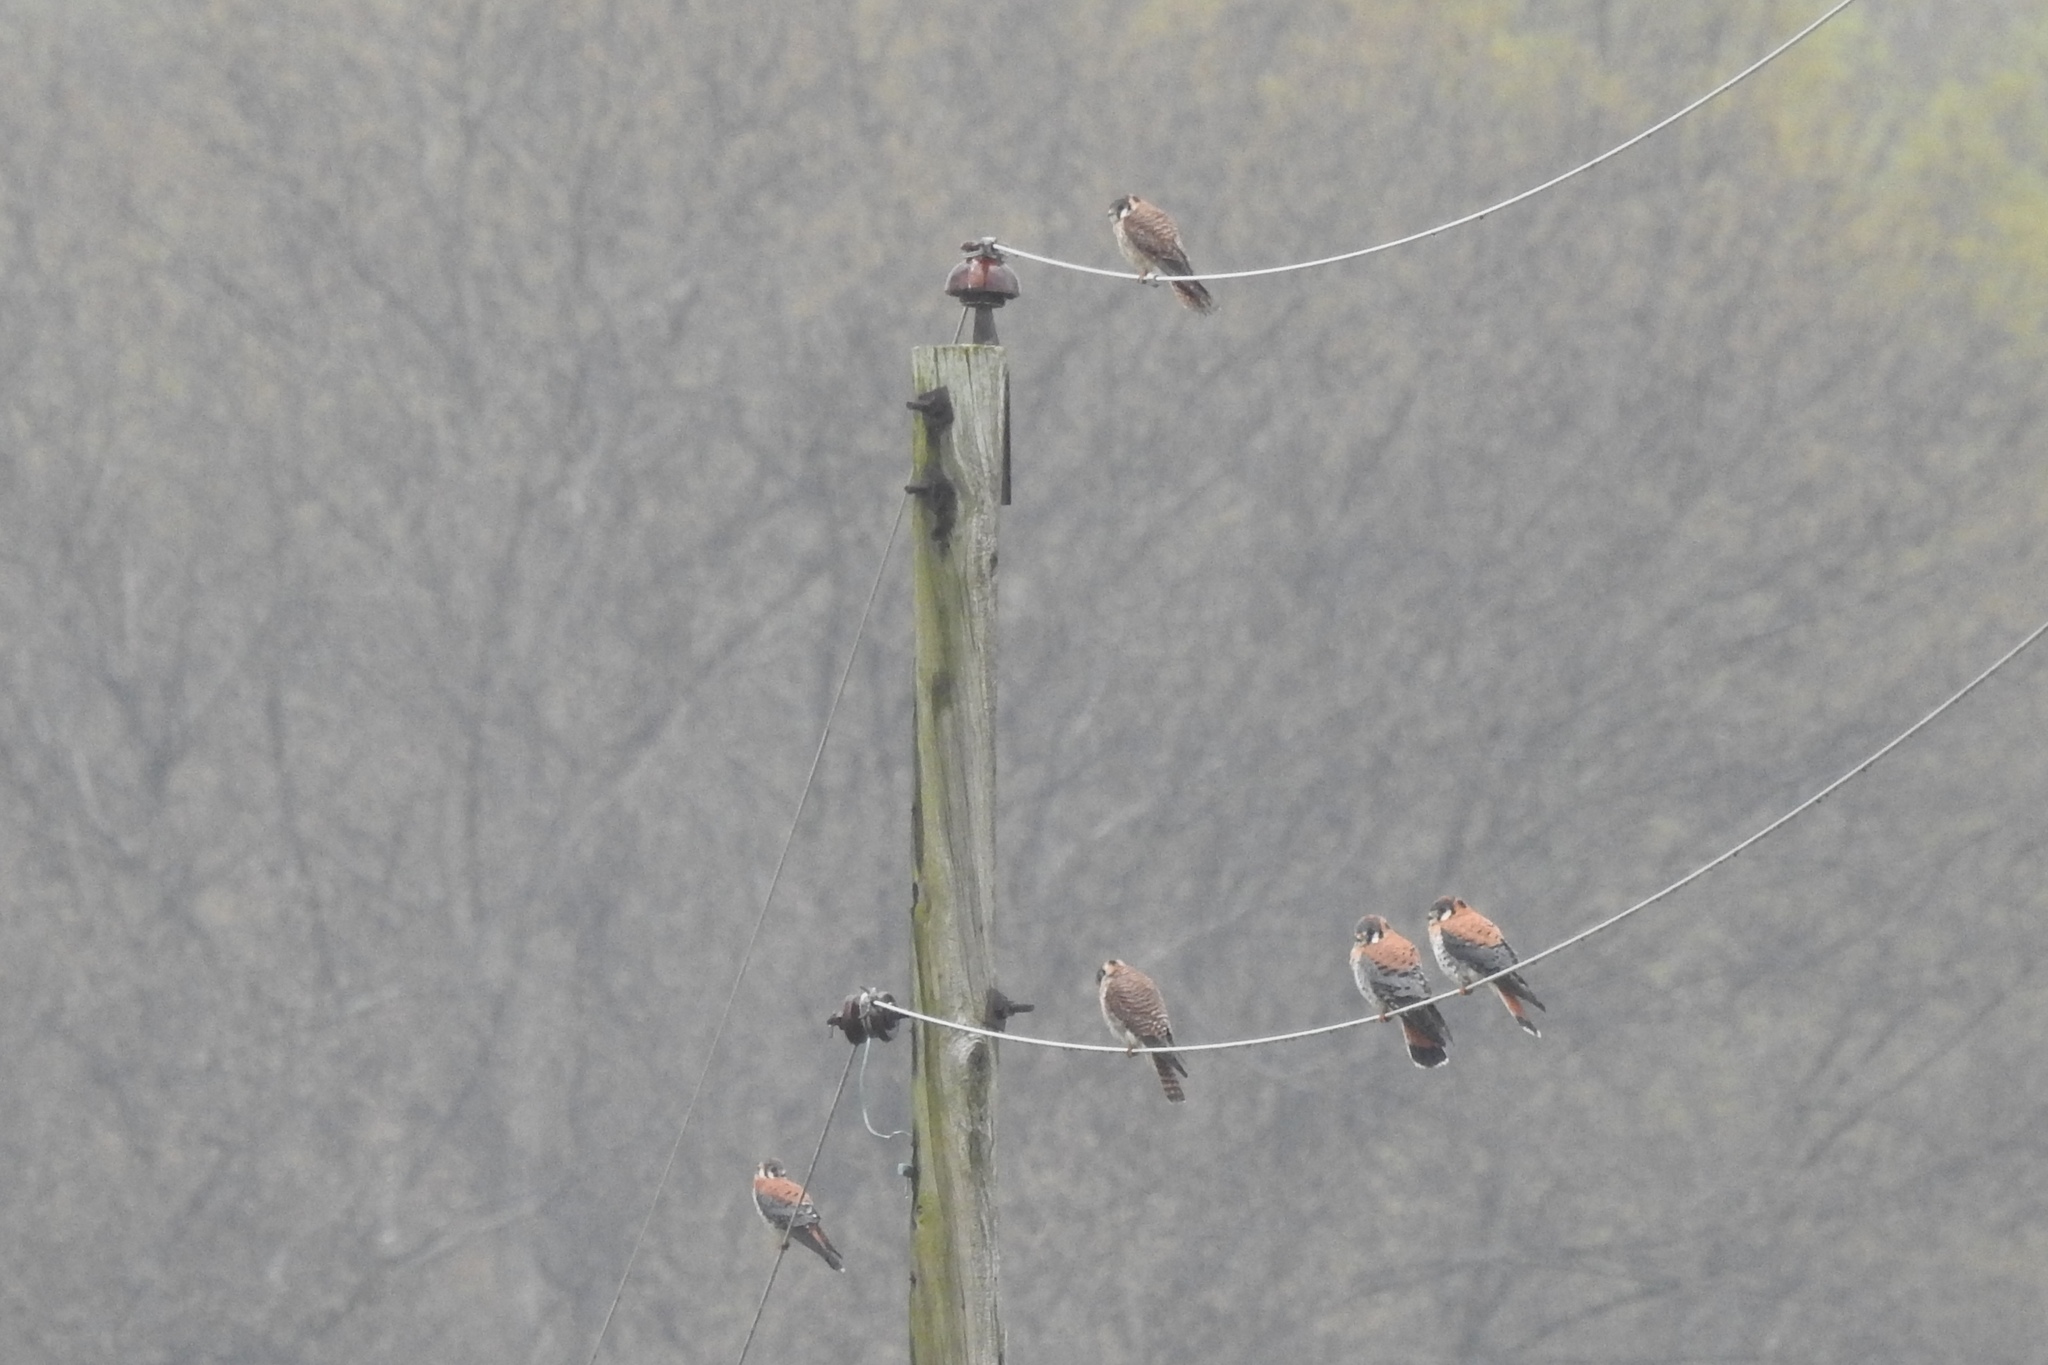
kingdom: Animalia
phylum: Chordata
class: Aves
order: Falconiformes
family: Falconidae
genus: Falco
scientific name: Falco sparverius
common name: American kestrel
